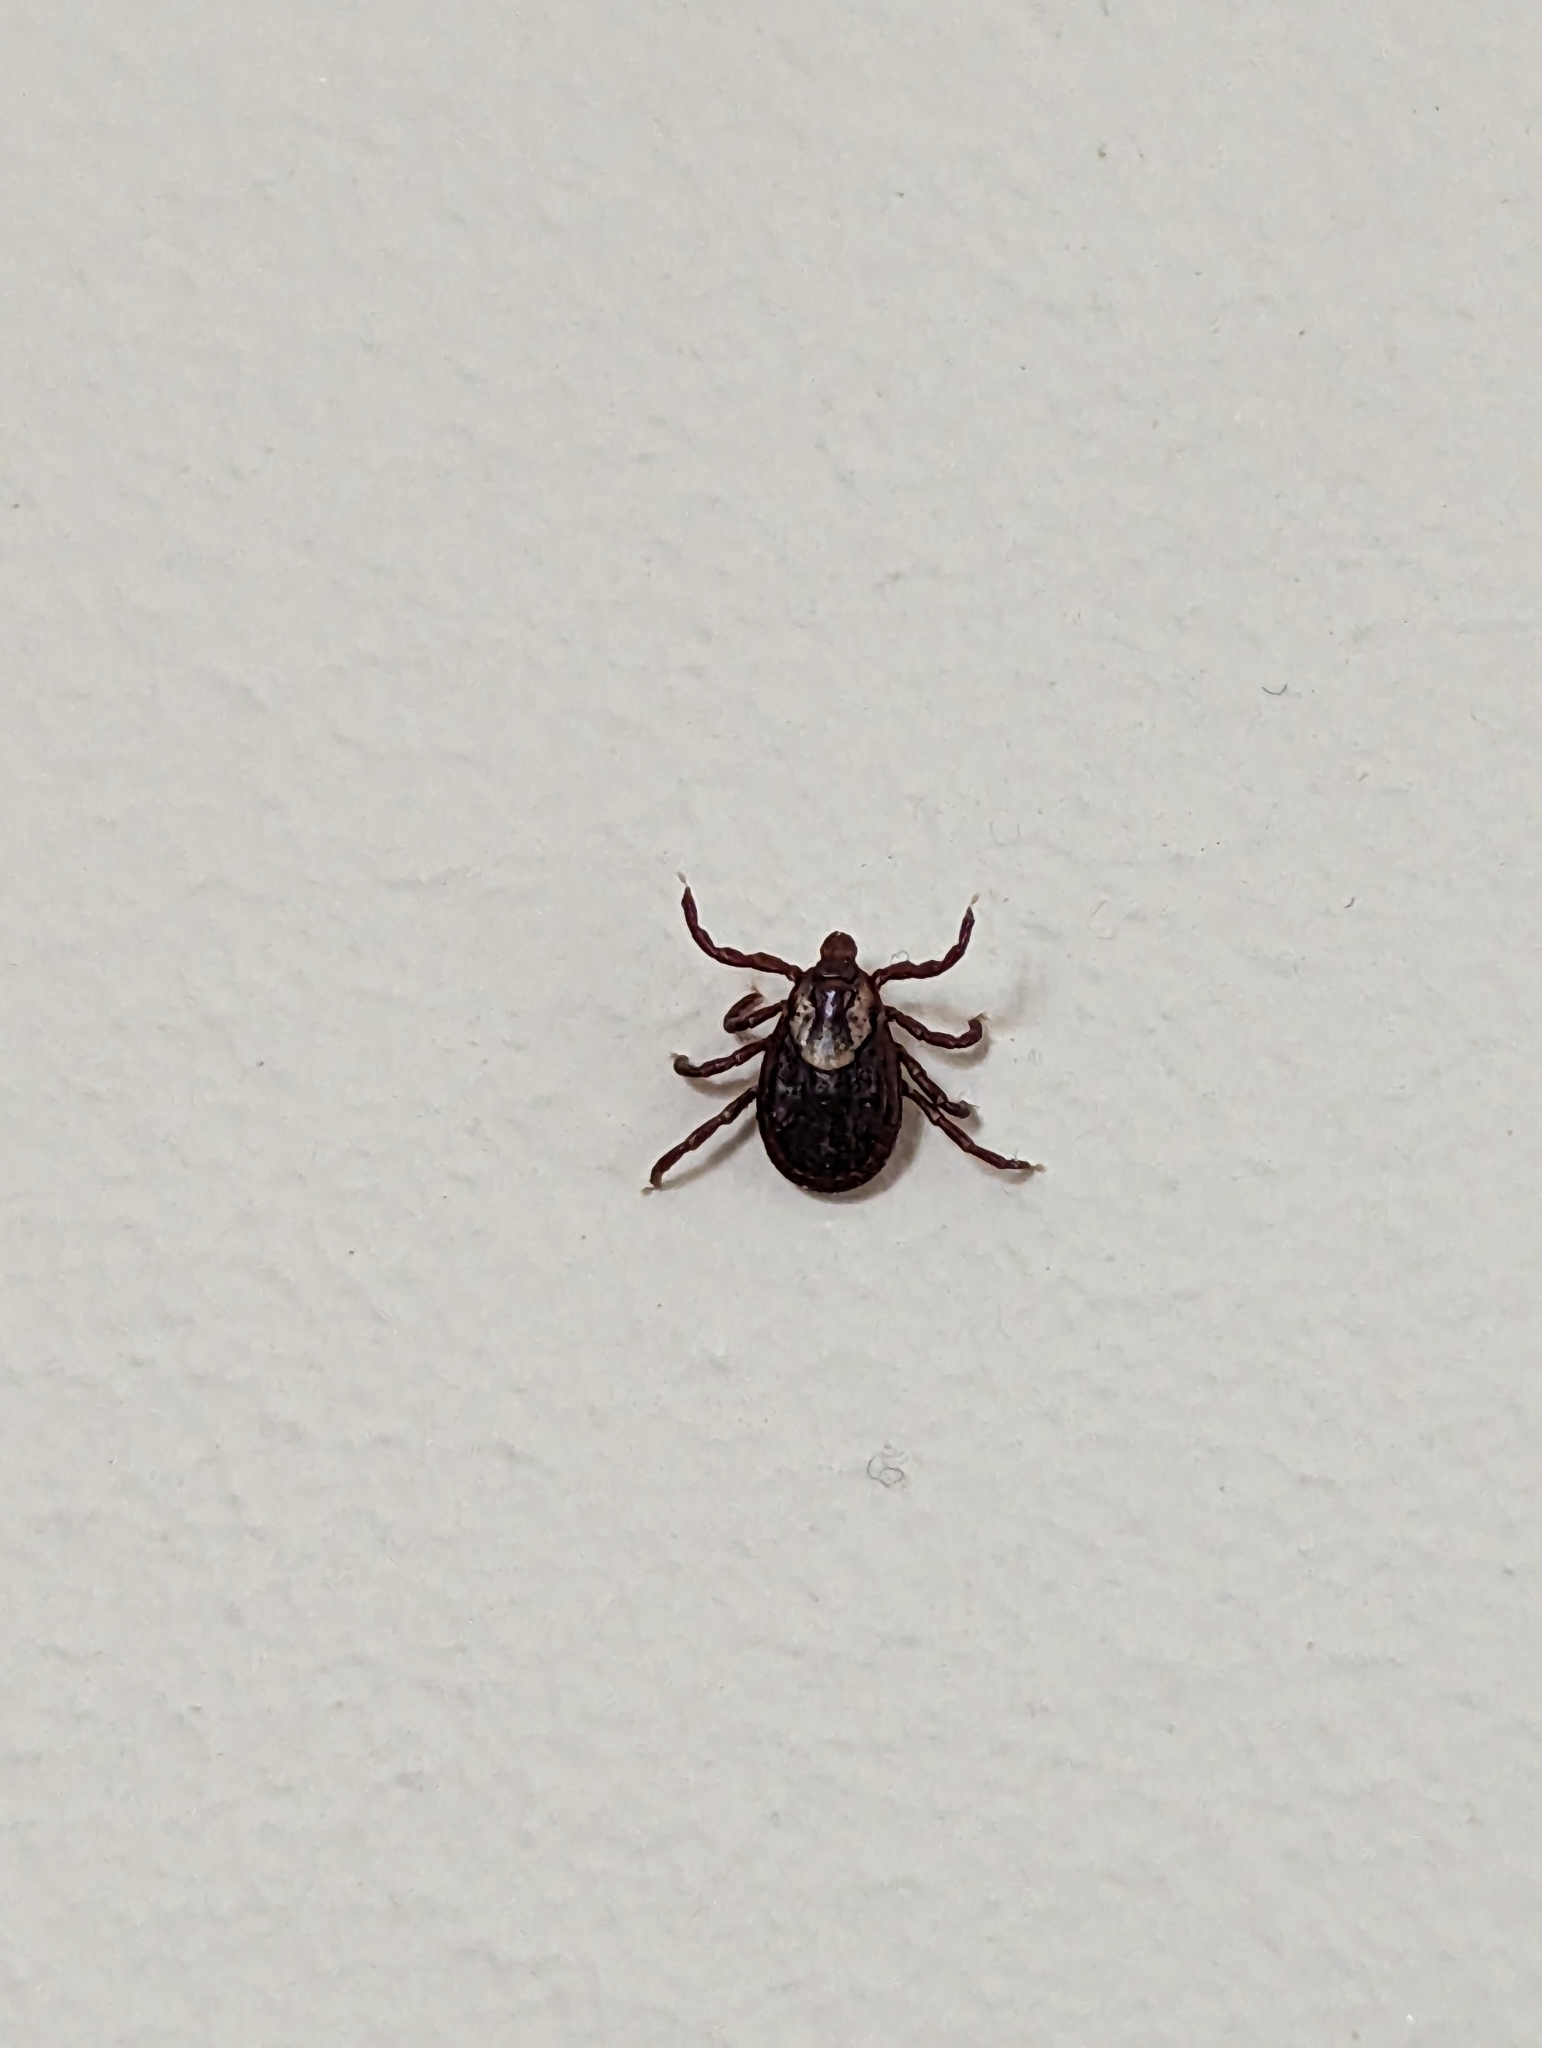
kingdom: Animalia
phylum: Arthropoda
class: Arachnida
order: Ixodida
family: Ixodidae
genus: Dermacentor
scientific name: Dermacentor variabilis
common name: American dog tick
